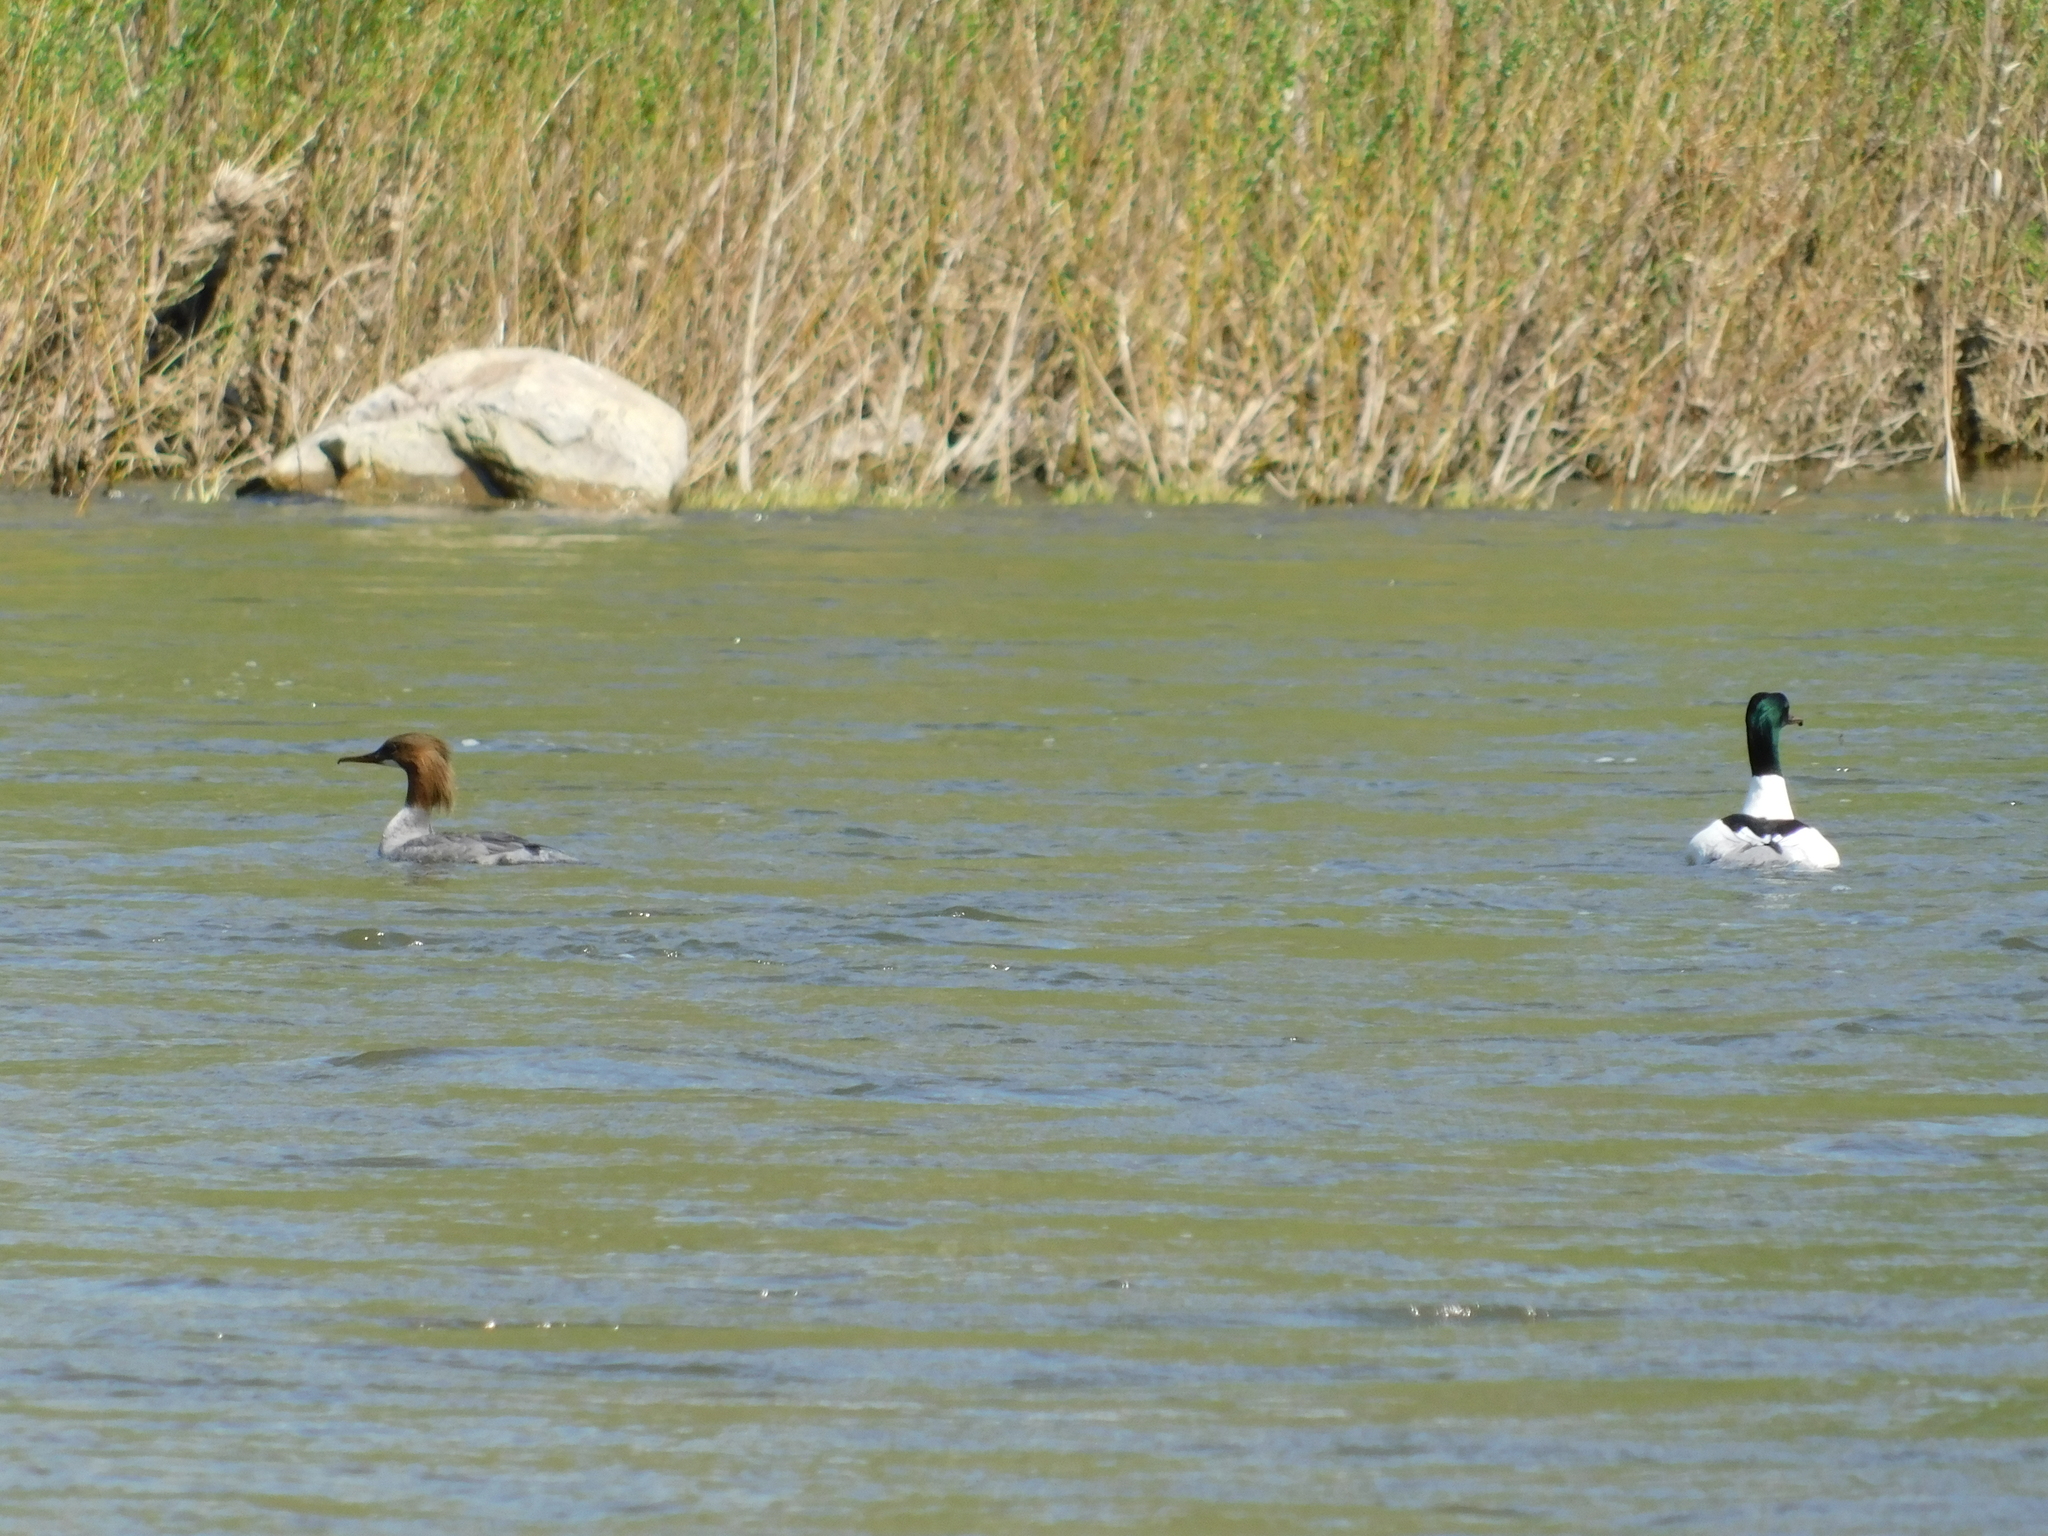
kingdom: Animalia
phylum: Chordata
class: Aves
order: Anseriformes
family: Anatidae
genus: Mergus
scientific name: Mergus merganser
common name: Common merganser
